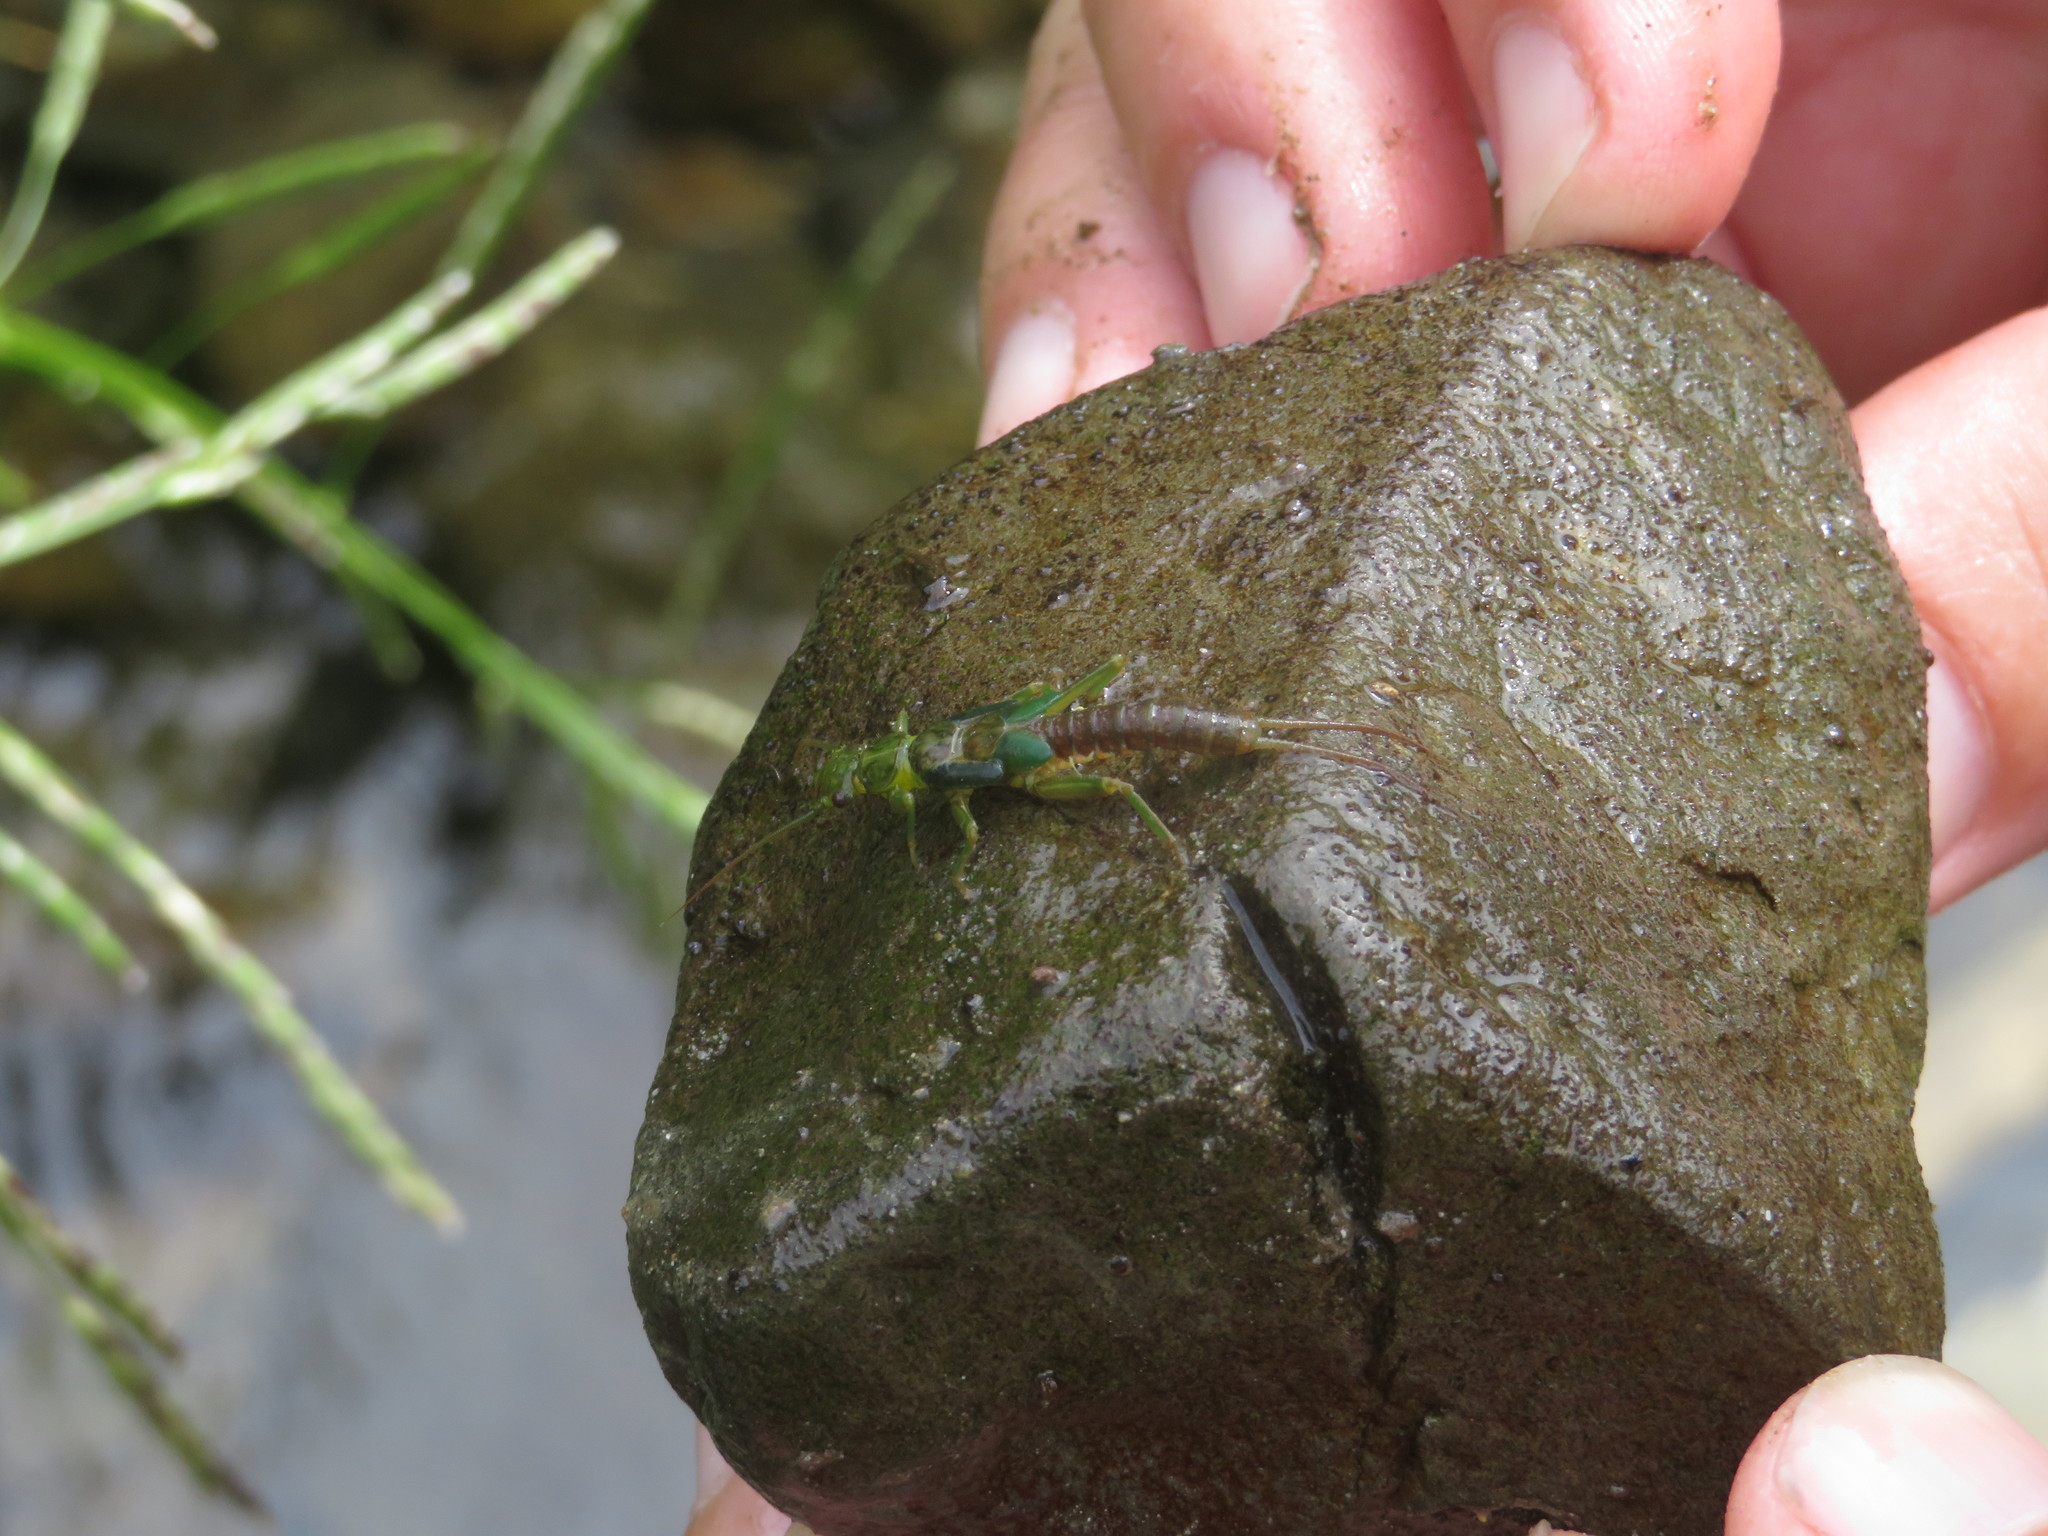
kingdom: Animalia
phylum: Arthropoda
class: Insecta
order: Plecoptera
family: Eustheniidae
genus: Stenoperla
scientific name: Stenoperla
